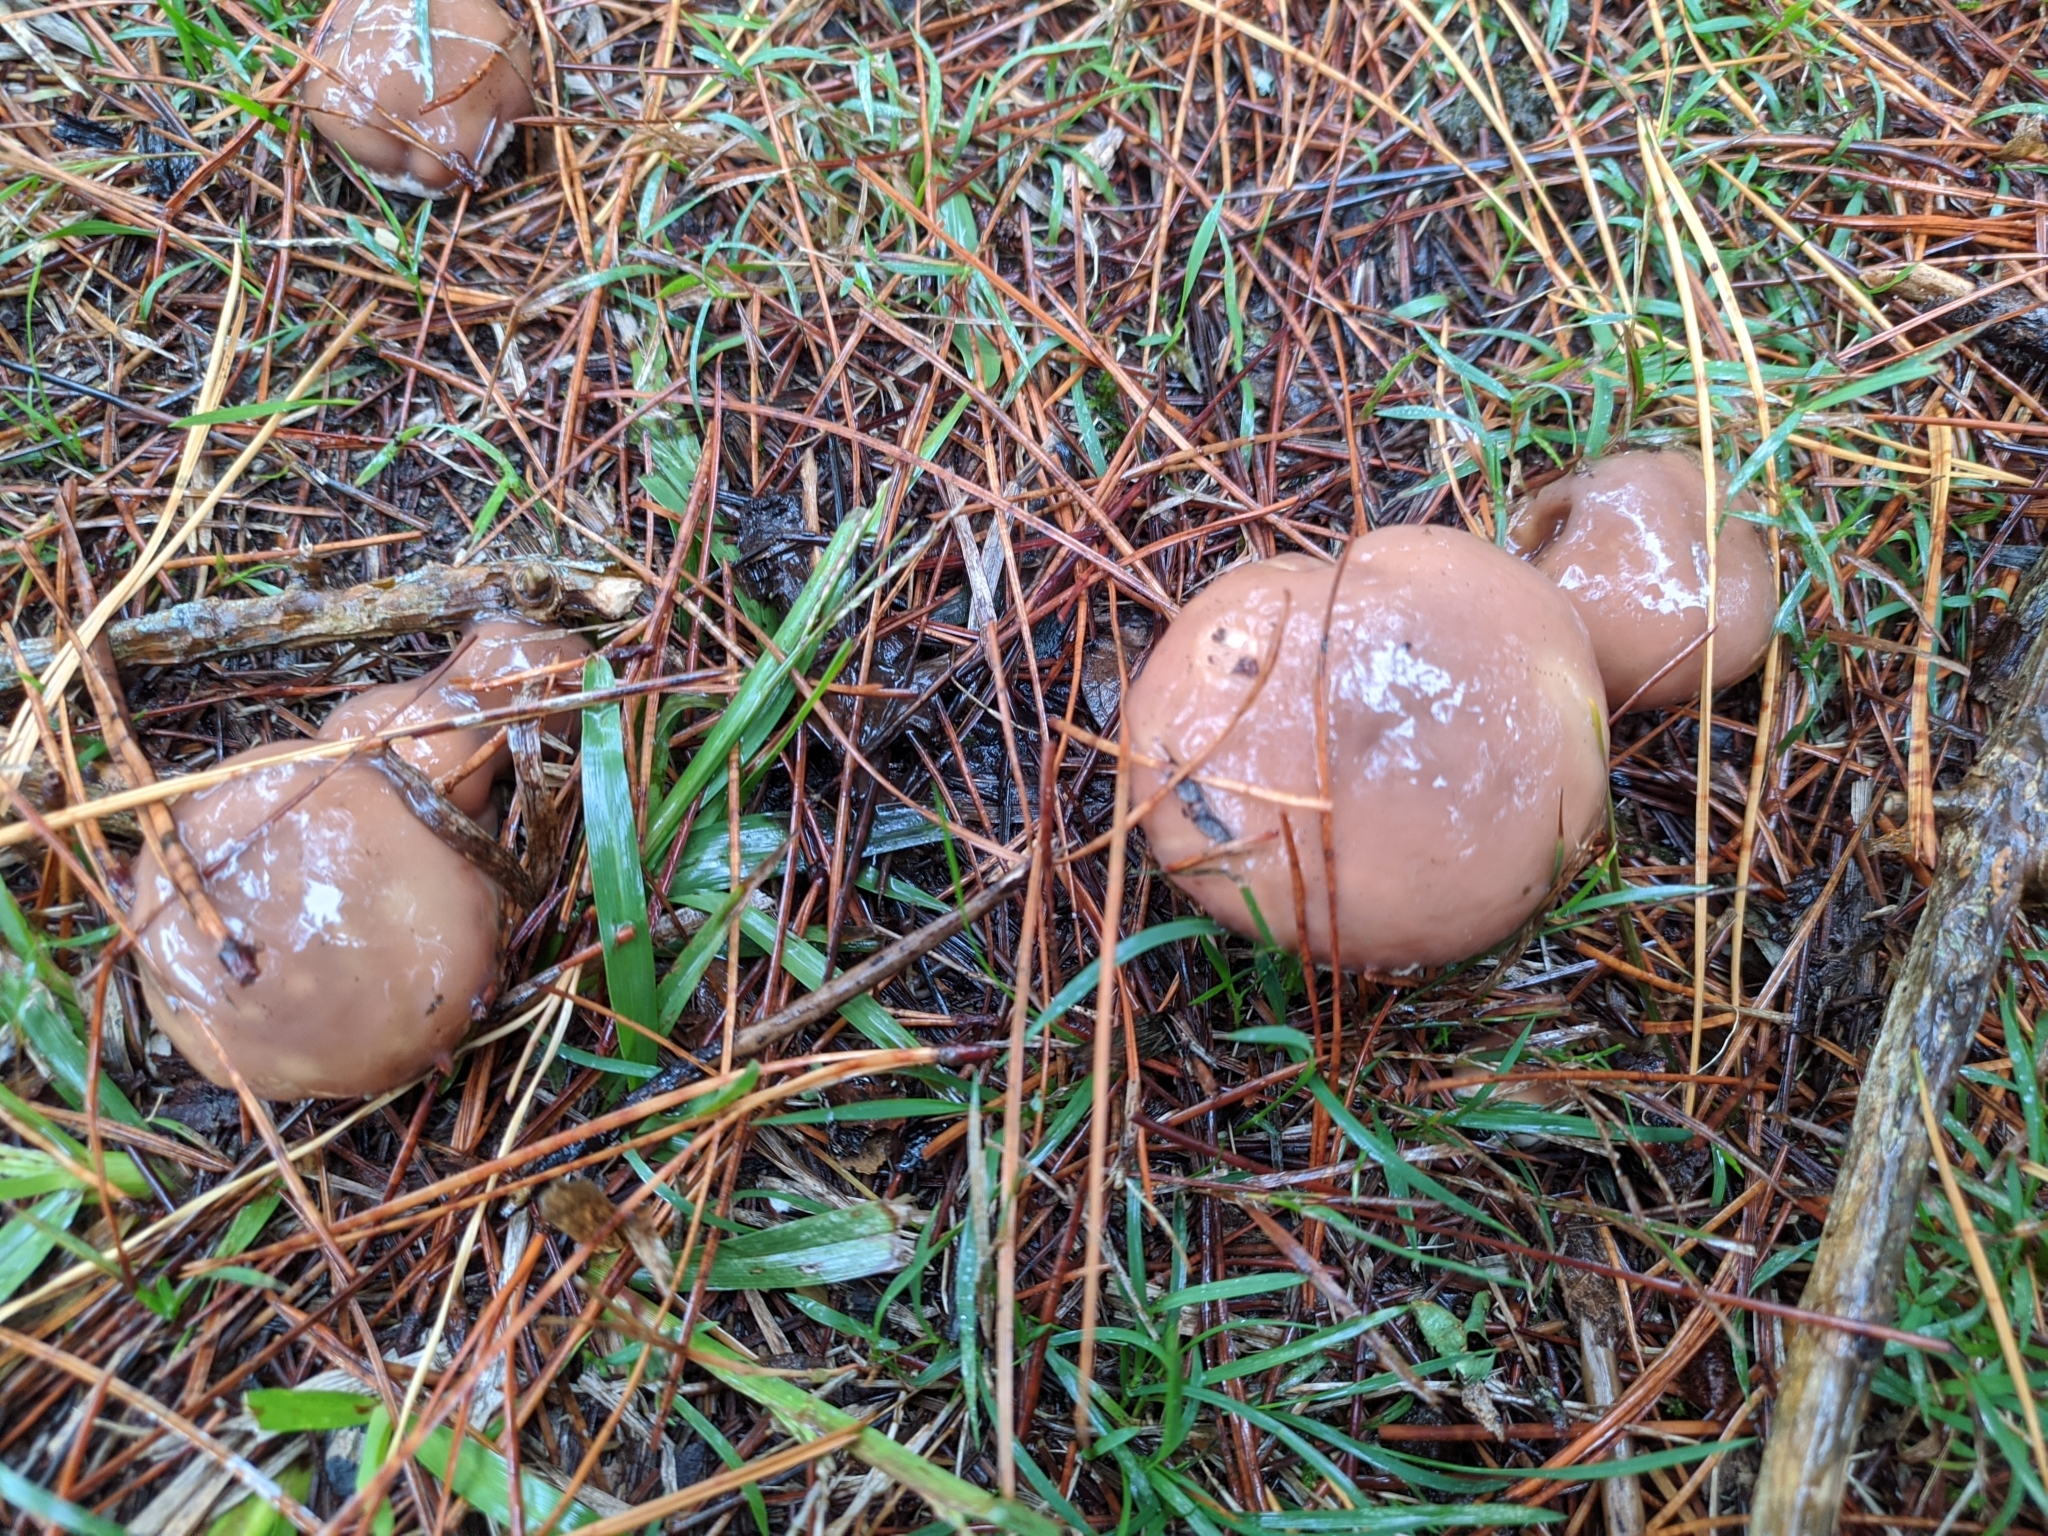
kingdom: Fungi
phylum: Basidiomycota
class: Agaricomycetes
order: Boletales
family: Suillaceae
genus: Suillus
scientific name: Suillus luteus
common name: Slippery jack
